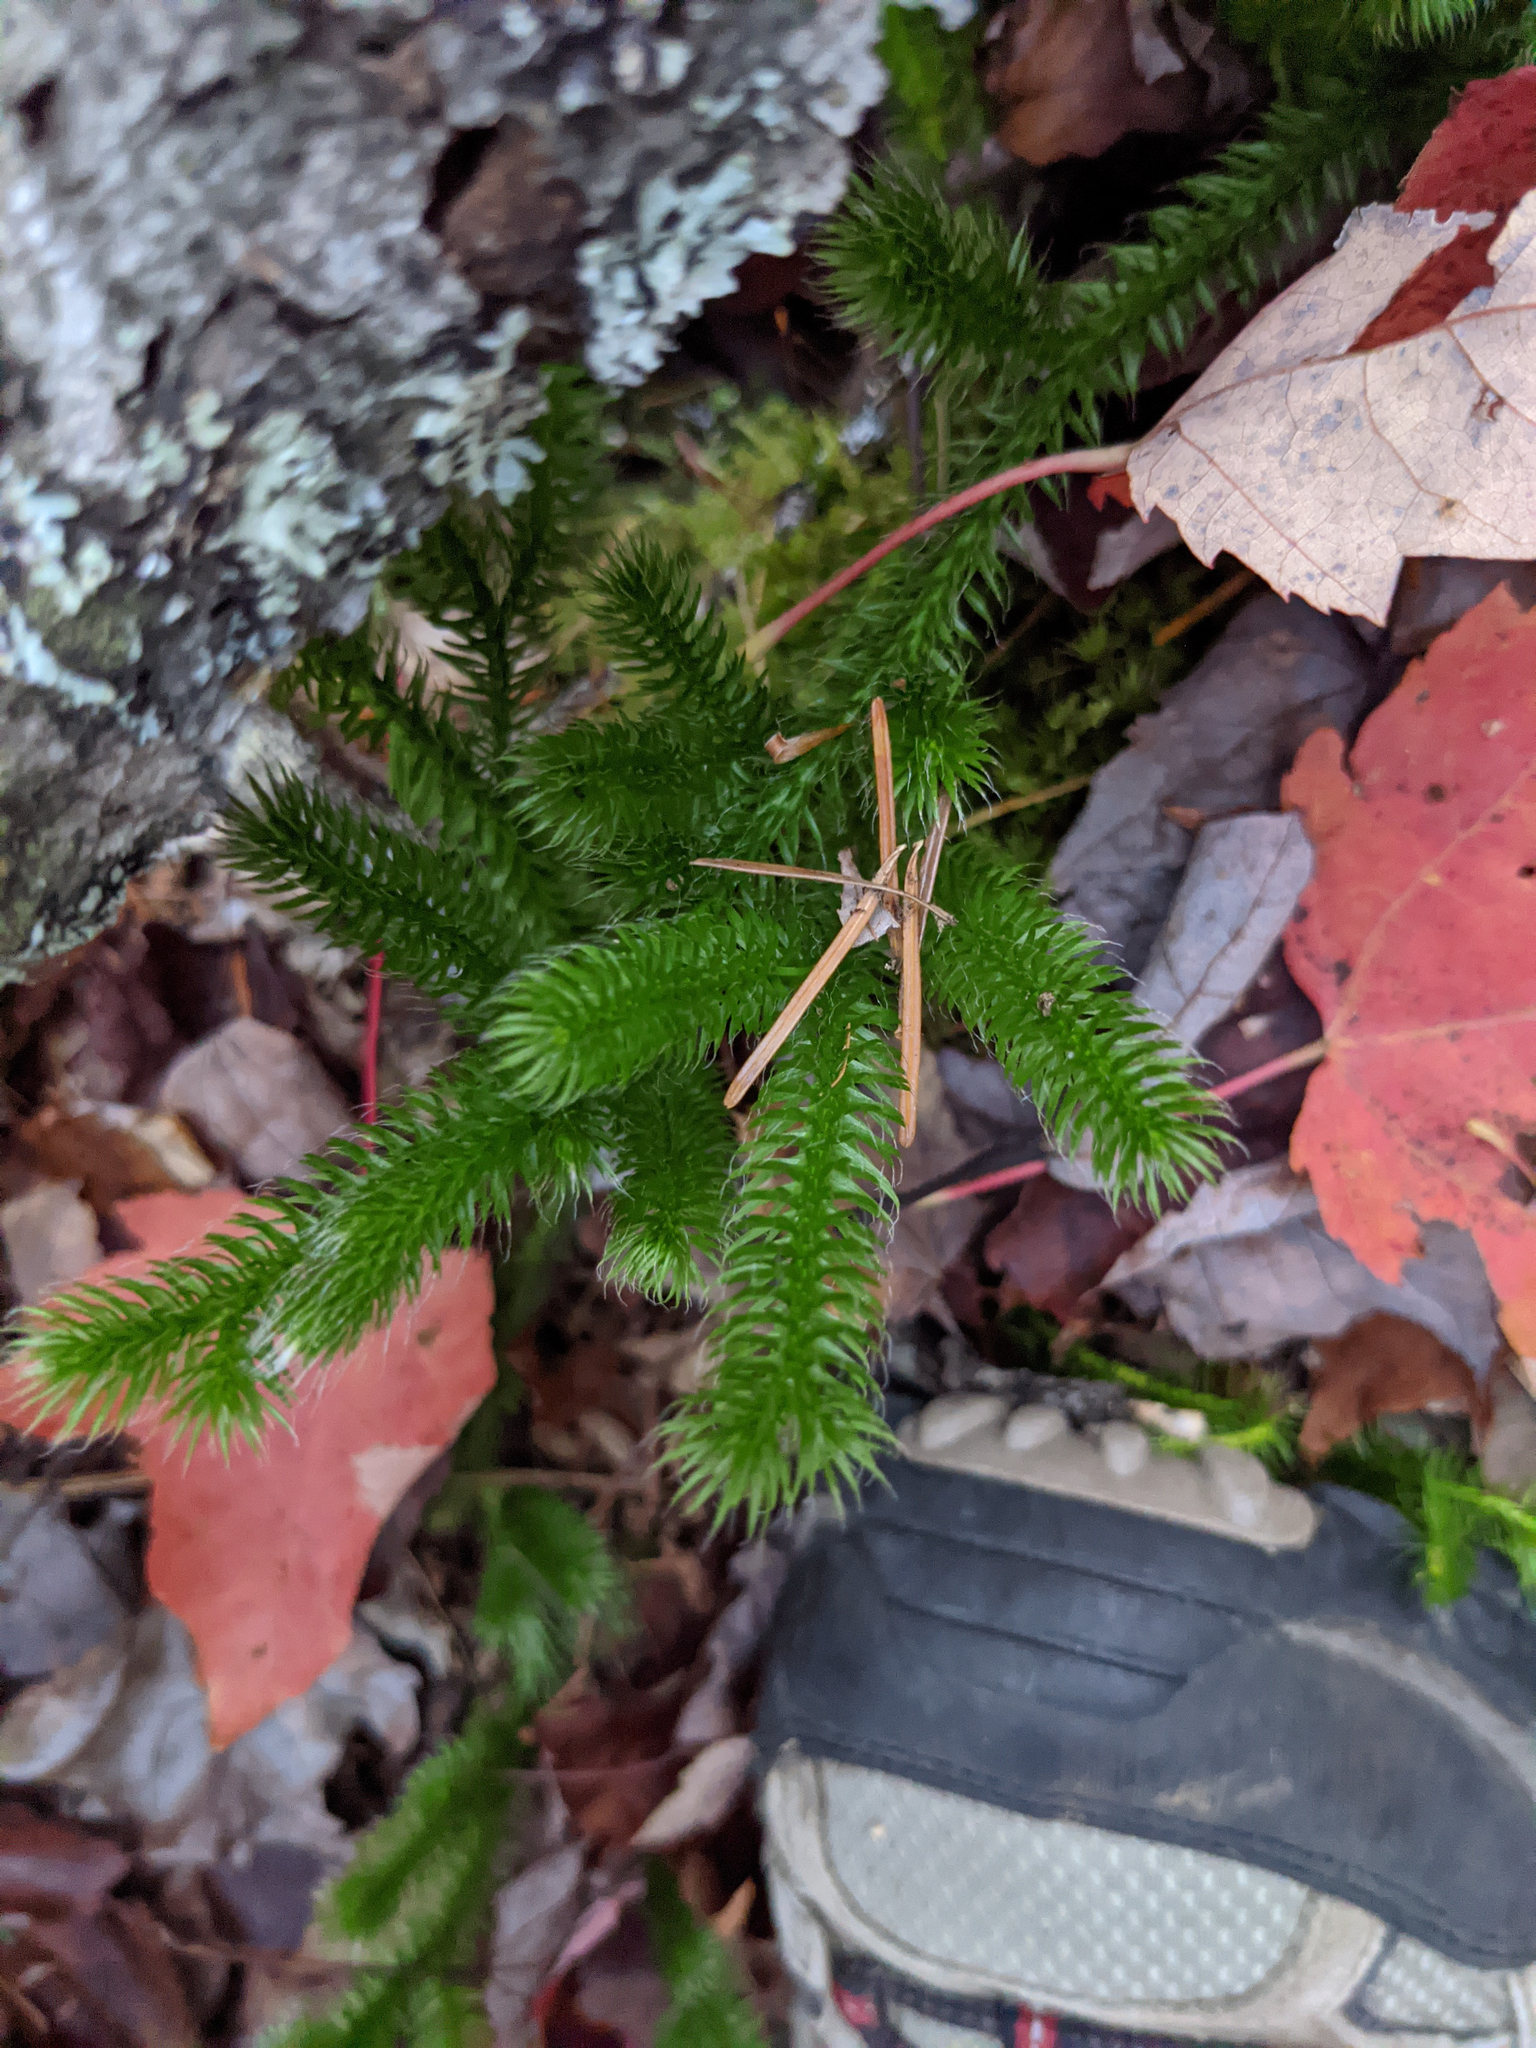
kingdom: Plantae
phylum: Tracheophyta
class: Lycopodiopsida
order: Lycopodiales
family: Lycopodiaceae
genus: Lycopodium
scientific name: Lycopodium clavatum
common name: Stag's-horn clubmoss
